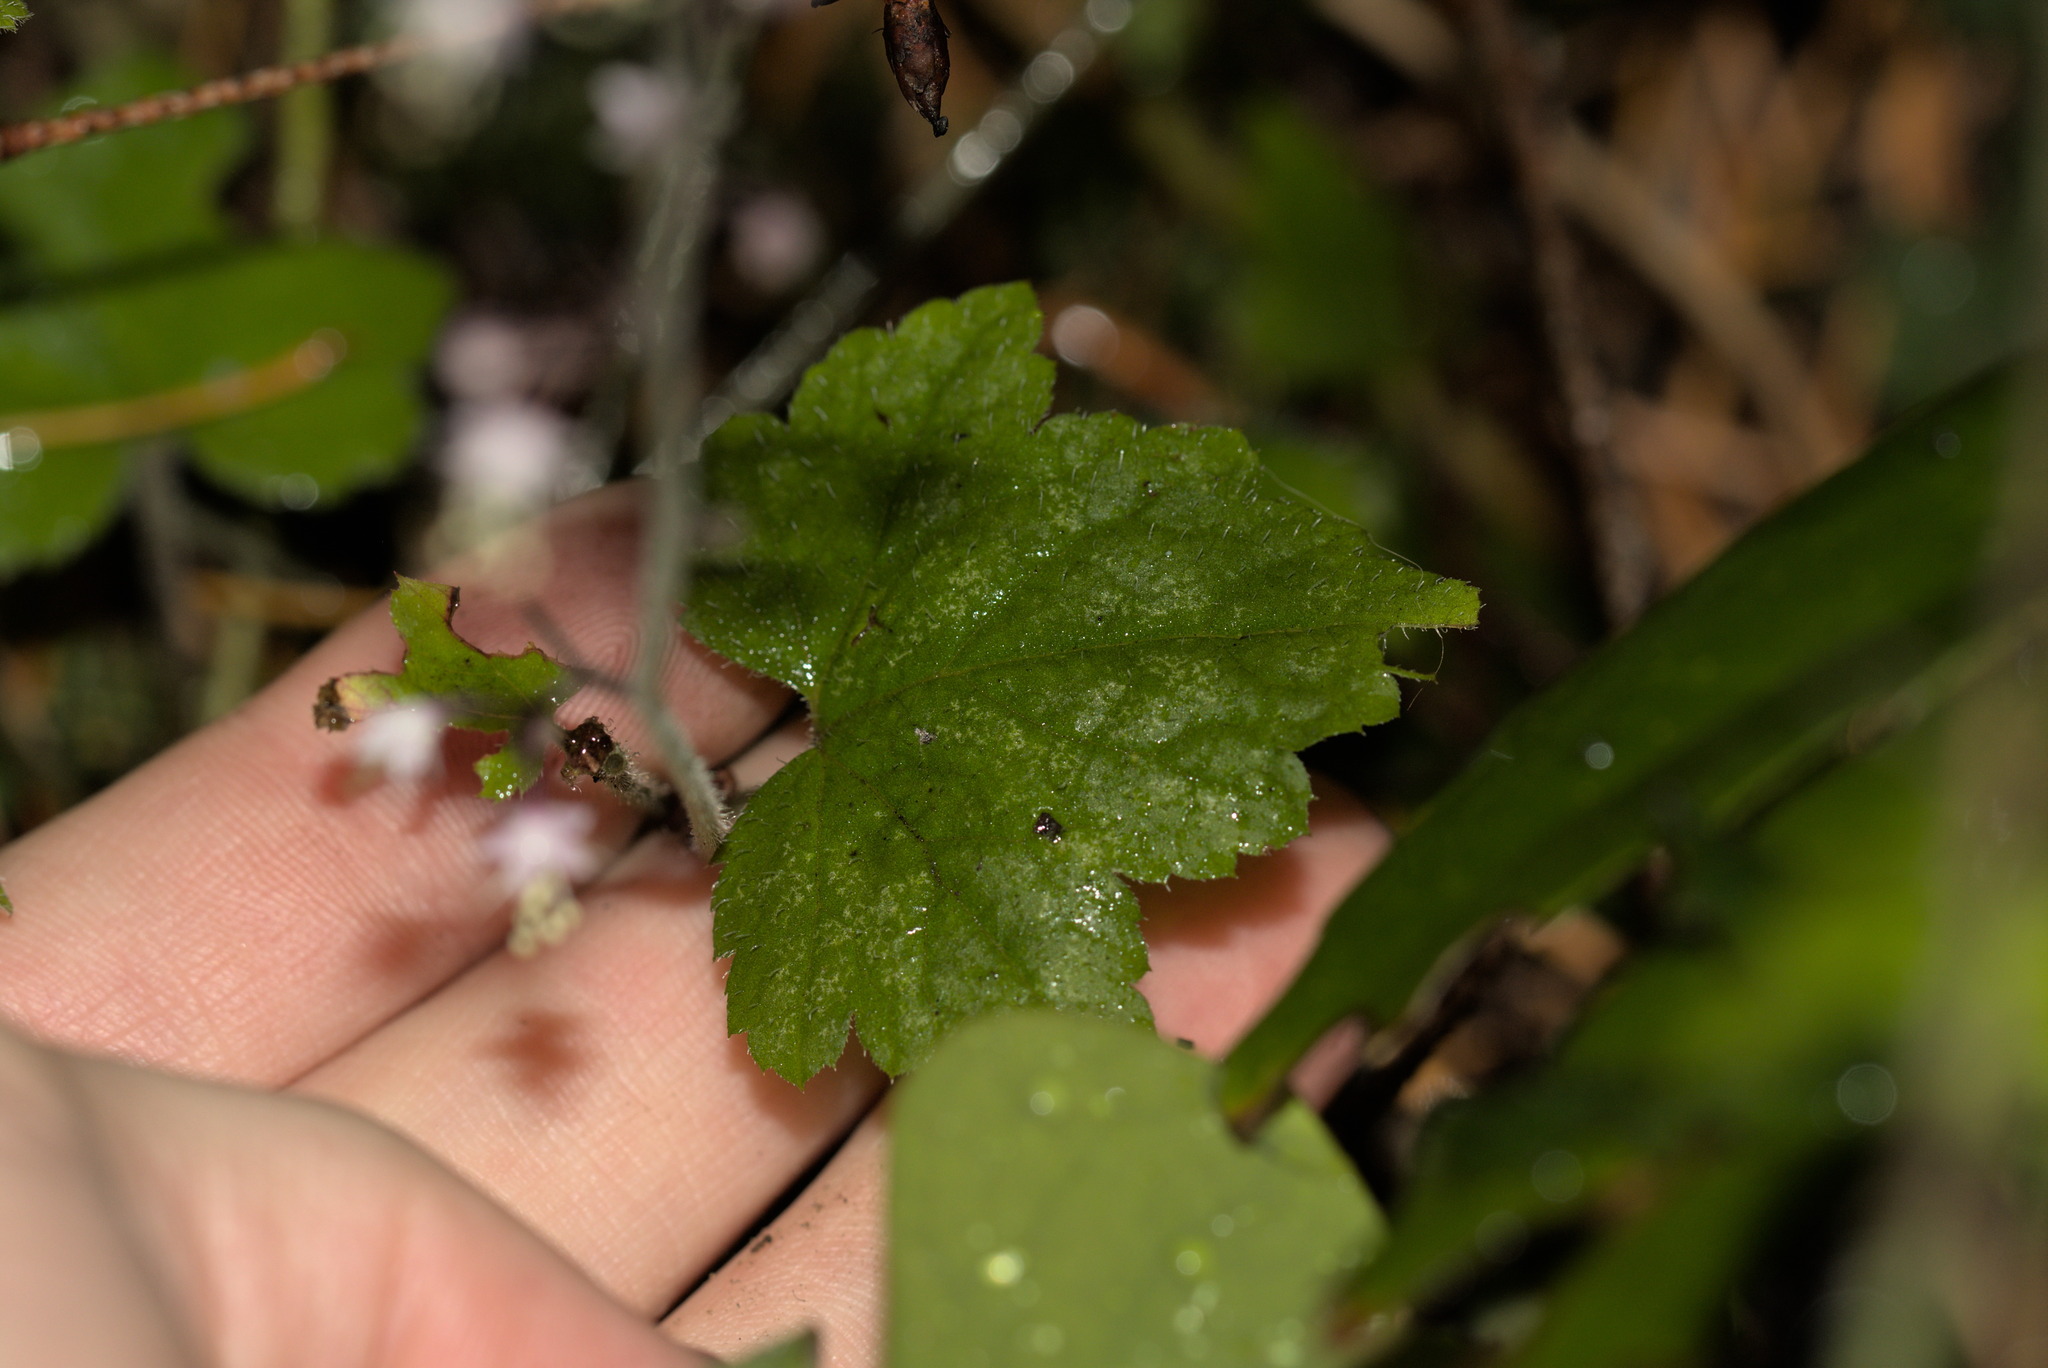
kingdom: Plantae
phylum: Tracheophyta
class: Magnoliopsida
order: Saxifragales
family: Saxifragaceae
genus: Tiarella
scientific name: Tiarella trifoliata
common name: Sugar-scoop
